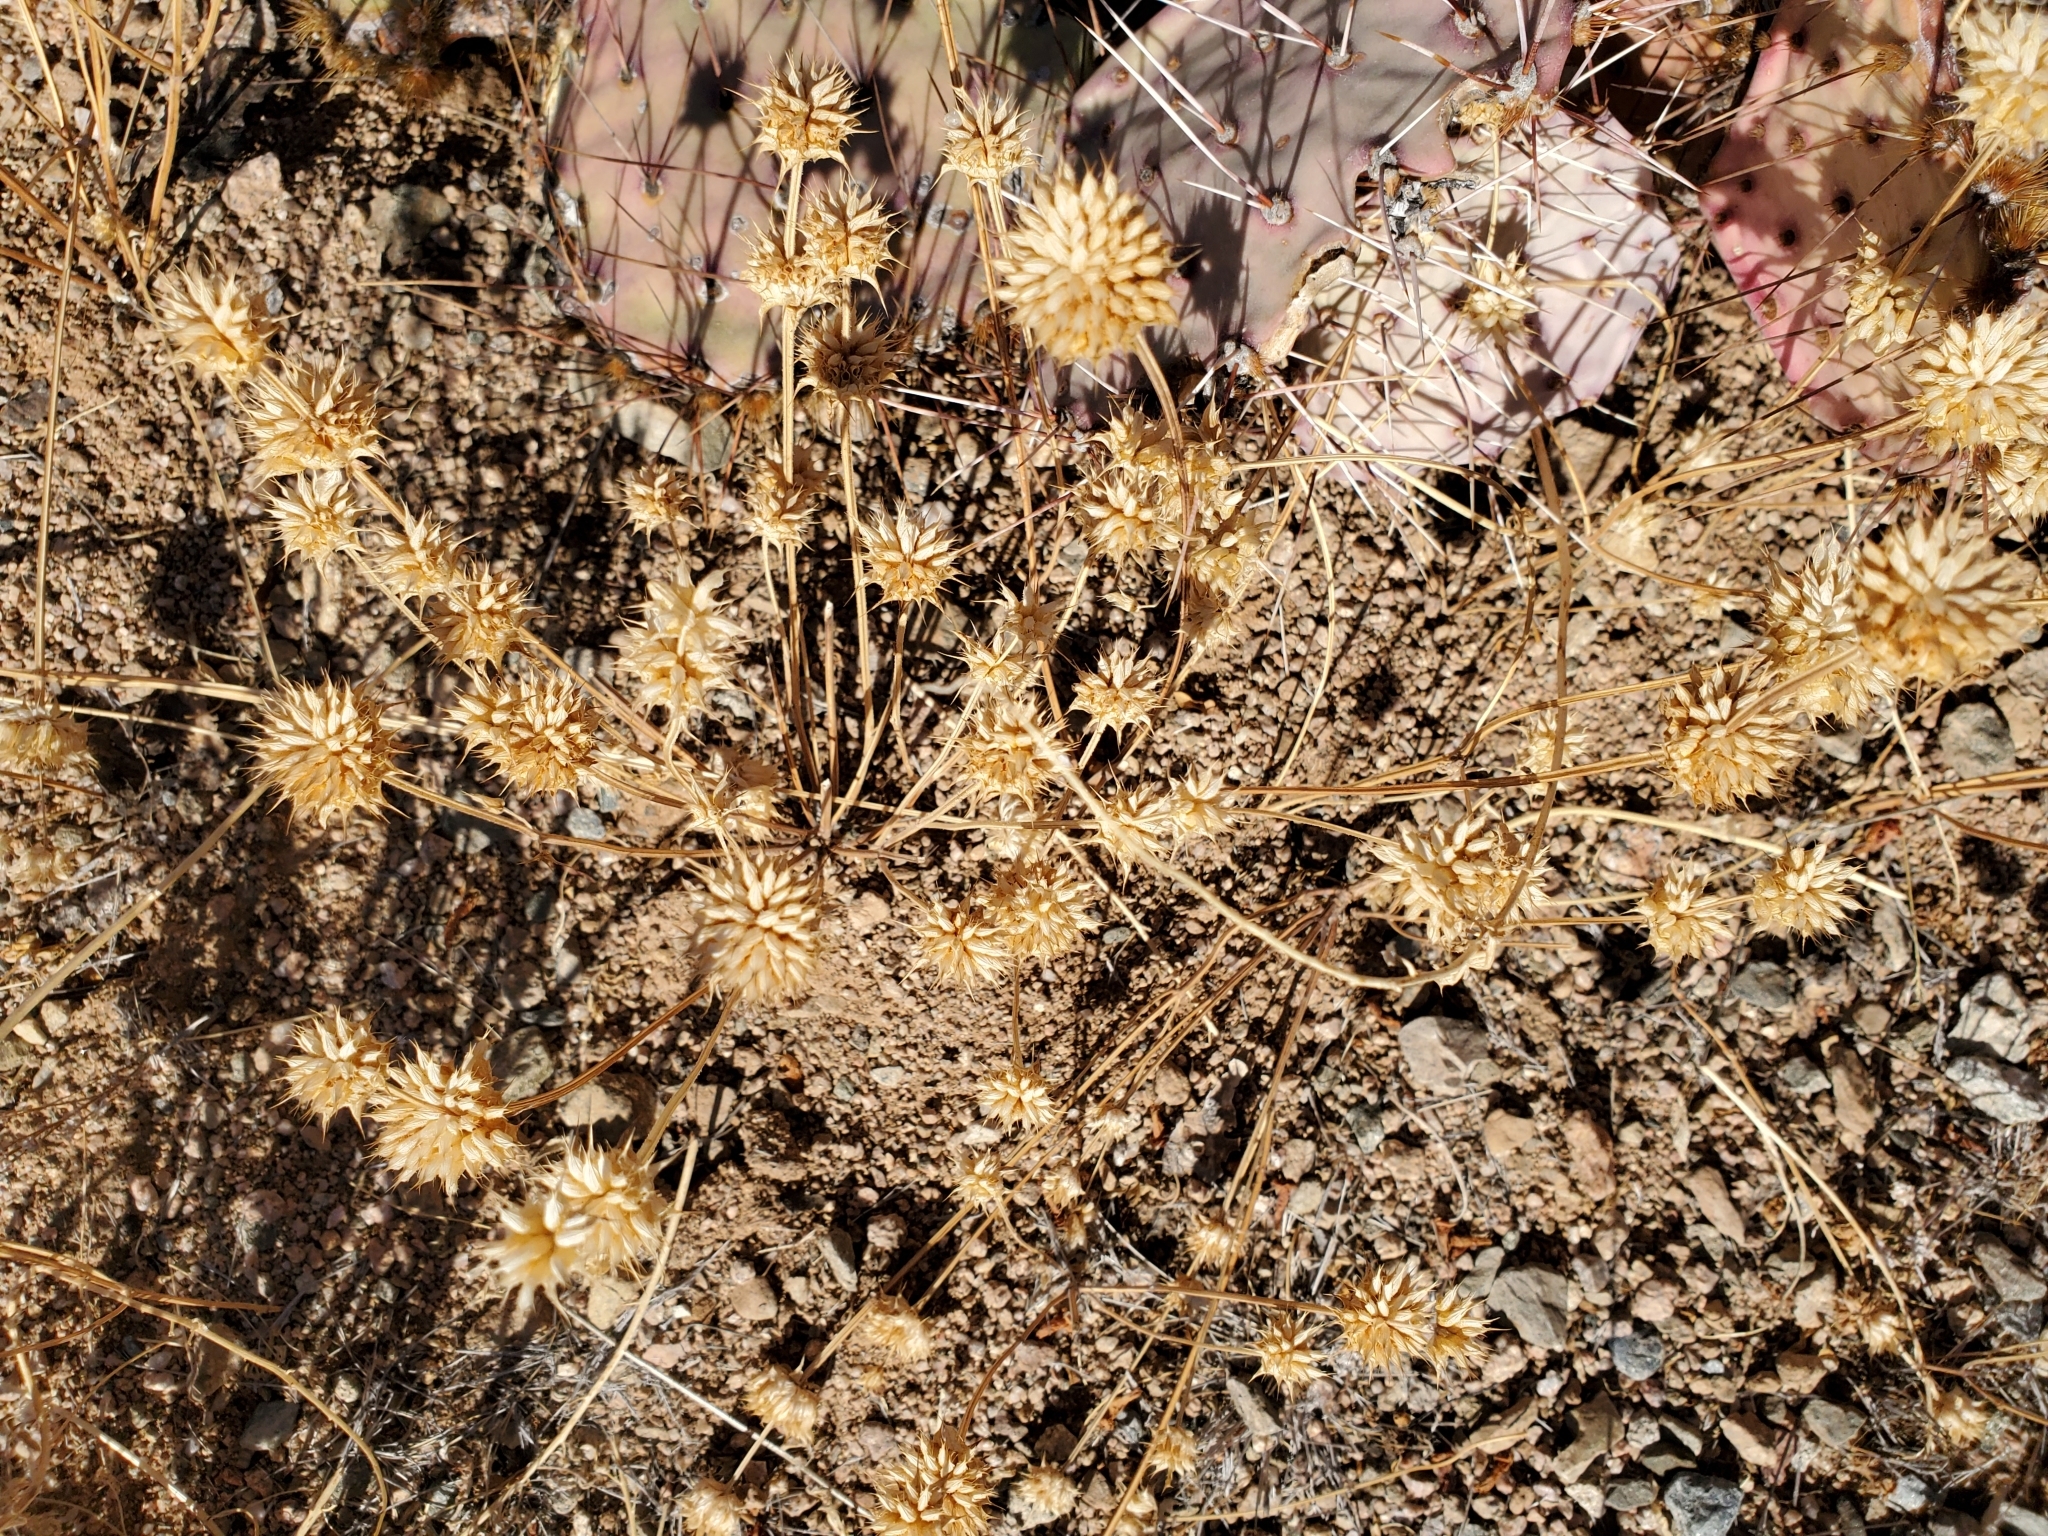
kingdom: Plantae
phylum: Tracheophyta
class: Magnoliopsida
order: Lamiales
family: Lamiaceae
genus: Salvia
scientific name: Salvia columbariae
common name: Chia
